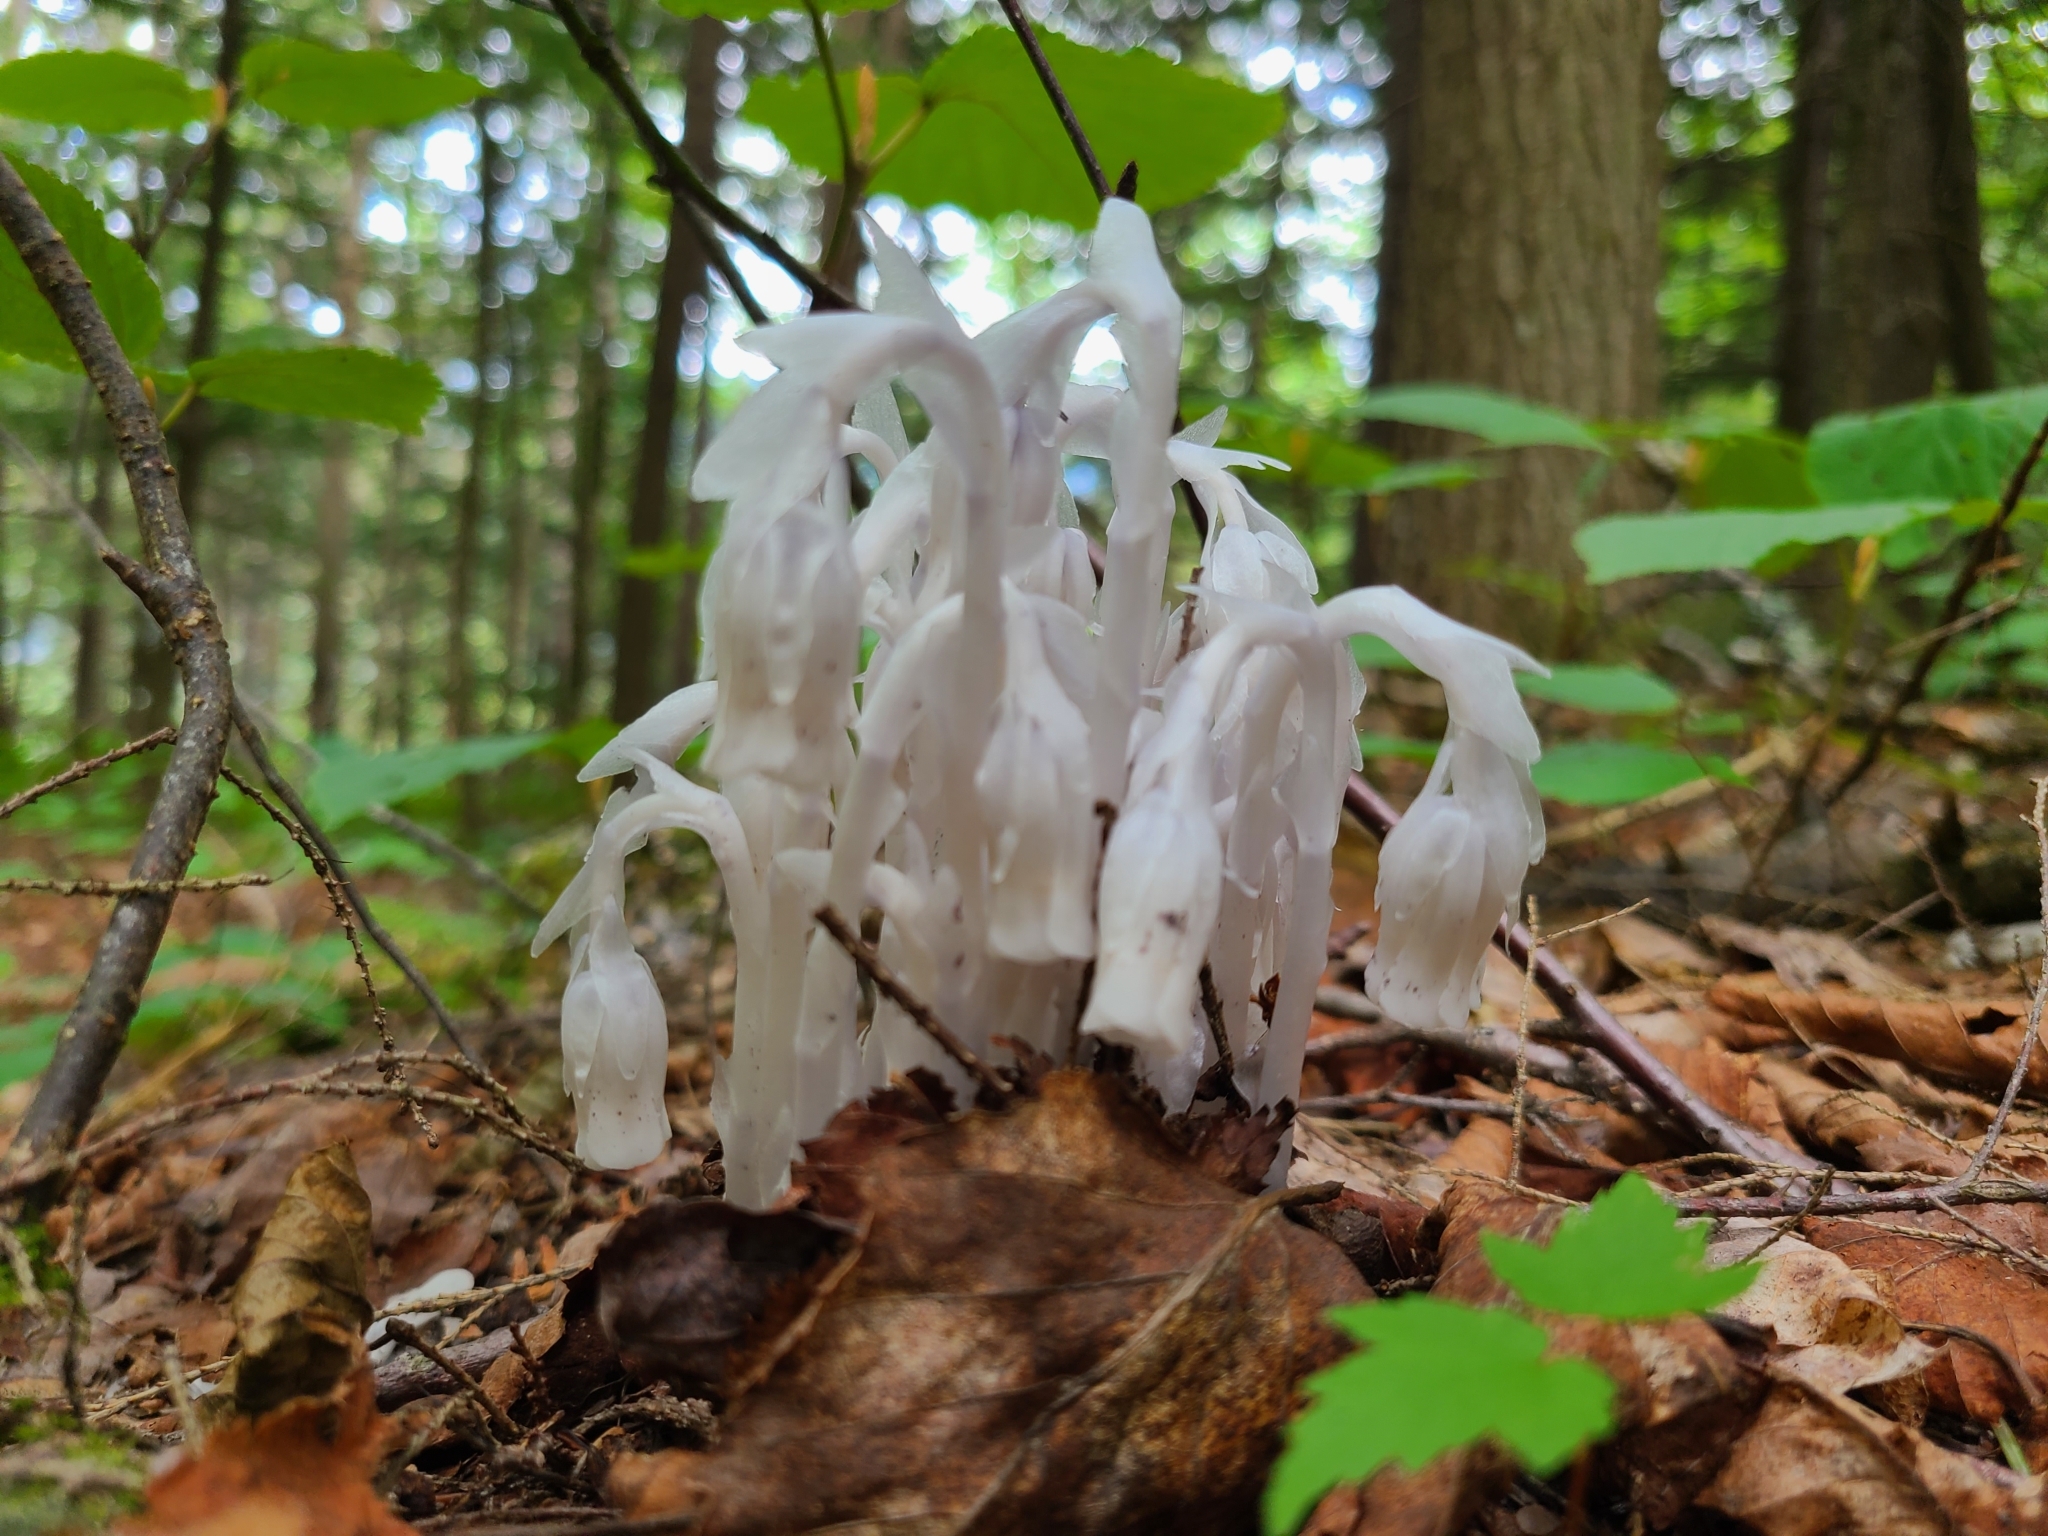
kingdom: Plantae
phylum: Tracheophyta
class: Magnoliopsida
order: Ericales
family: Ericaceae
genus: Monotropa
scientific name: Monotropa uniflora
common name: Convulsion root
